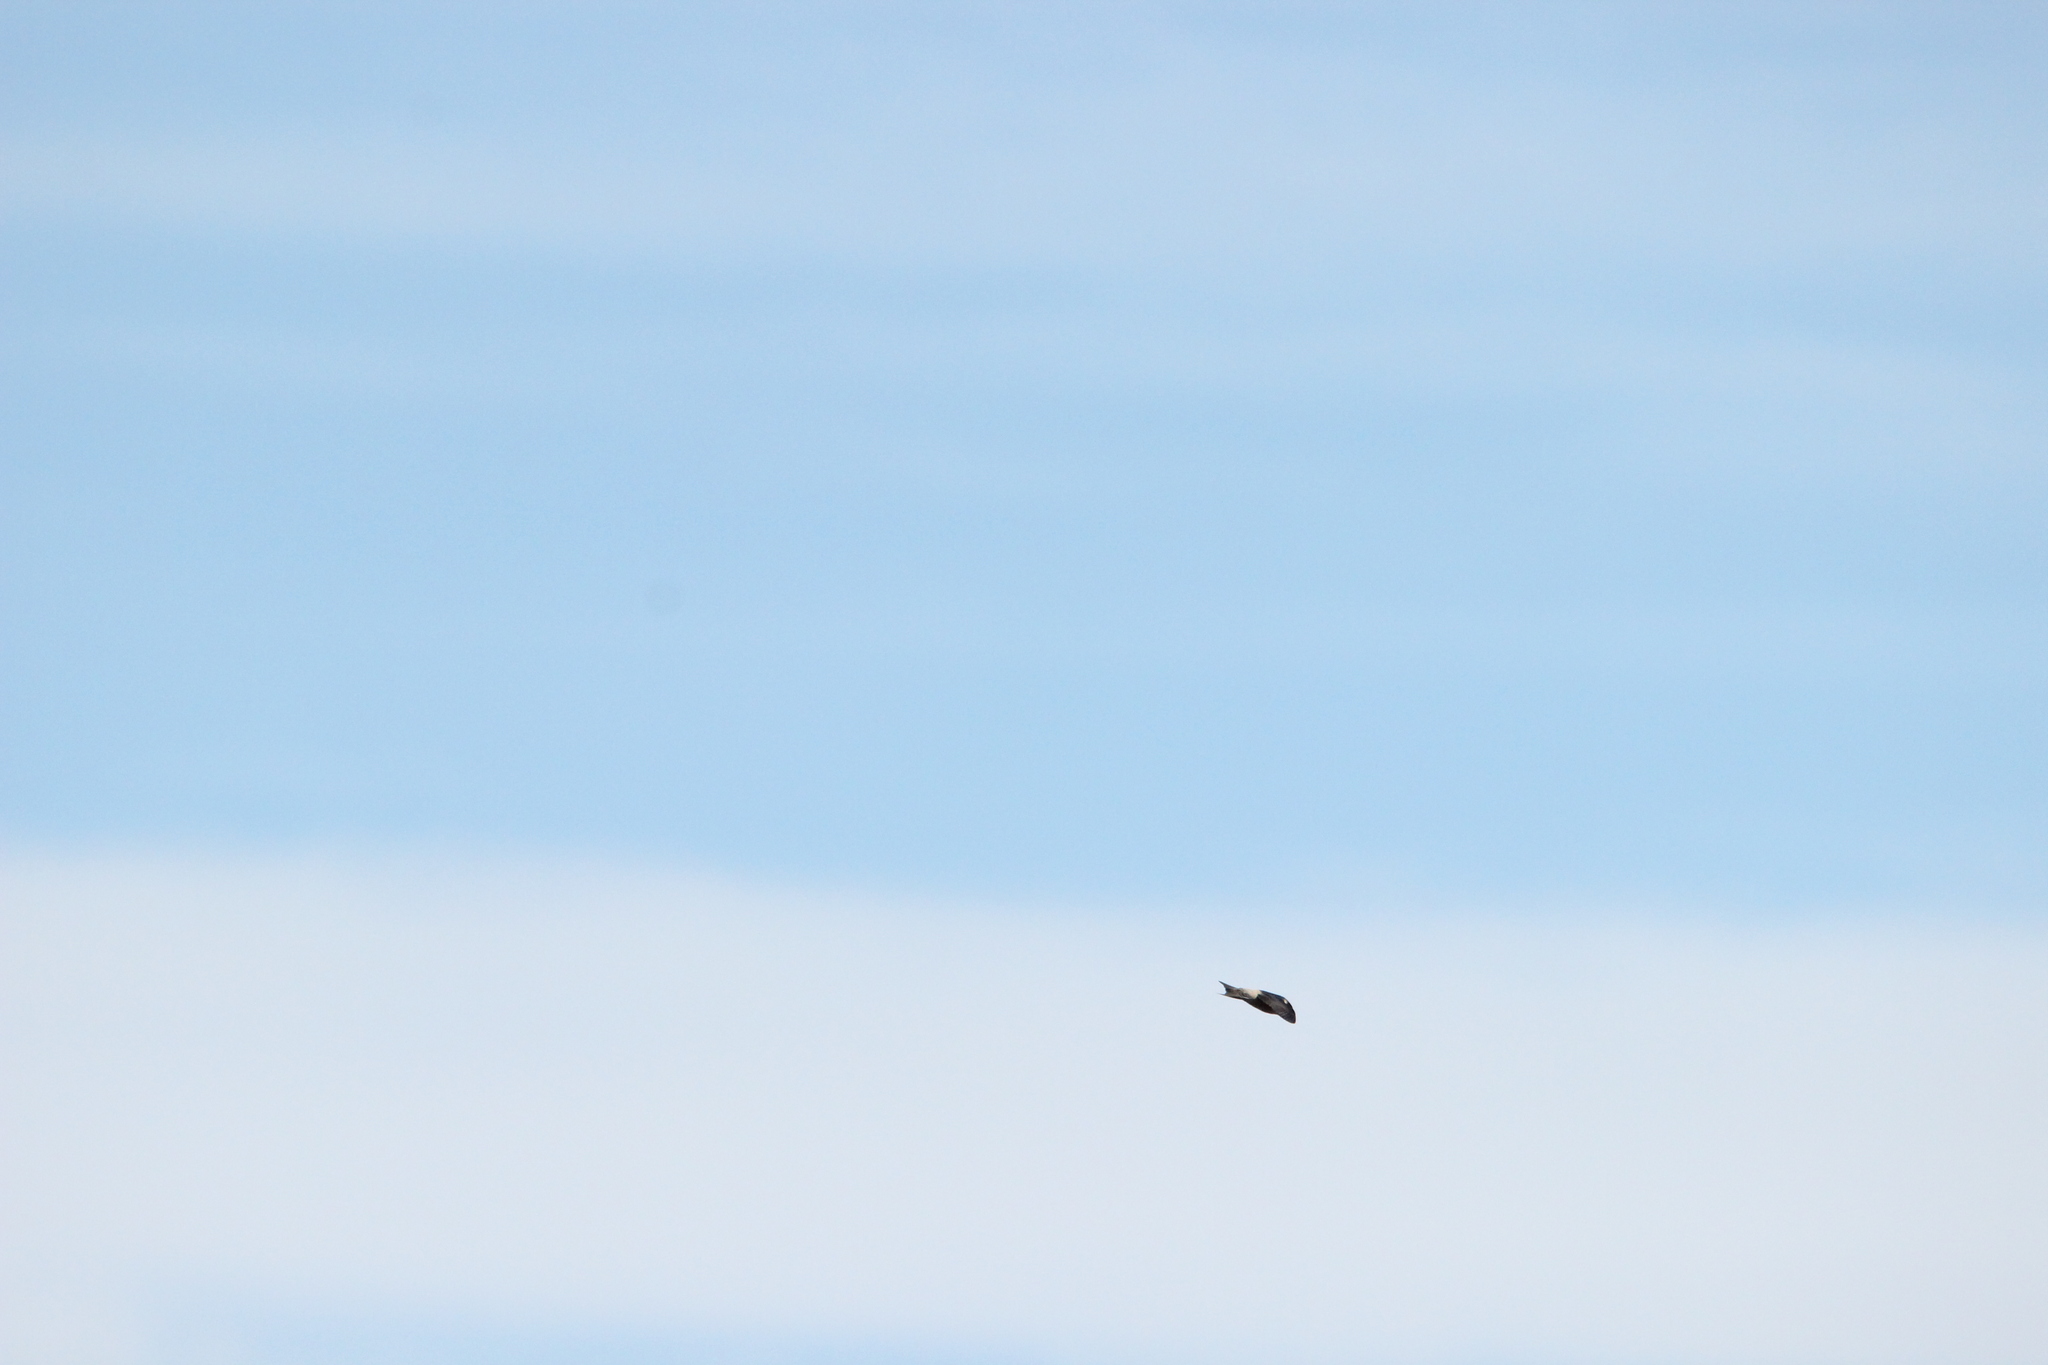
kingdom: Animalia
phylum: Chordata
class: Aves
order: Passeriformes
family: Hirundinidae
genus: Petrochelidon
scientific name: Petrochelidon nigricans
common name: Tree martin
